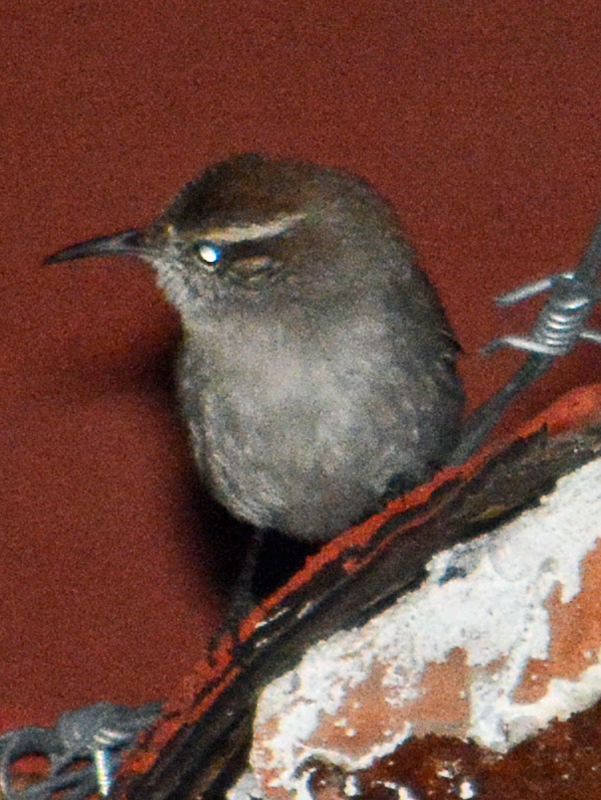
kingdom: Animalia
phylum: Chordata
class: Aves
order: Passeriformes
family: Troglodytidae
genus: Thryomanes
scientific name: Thryomanes bewickii
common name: Bewick's wren
